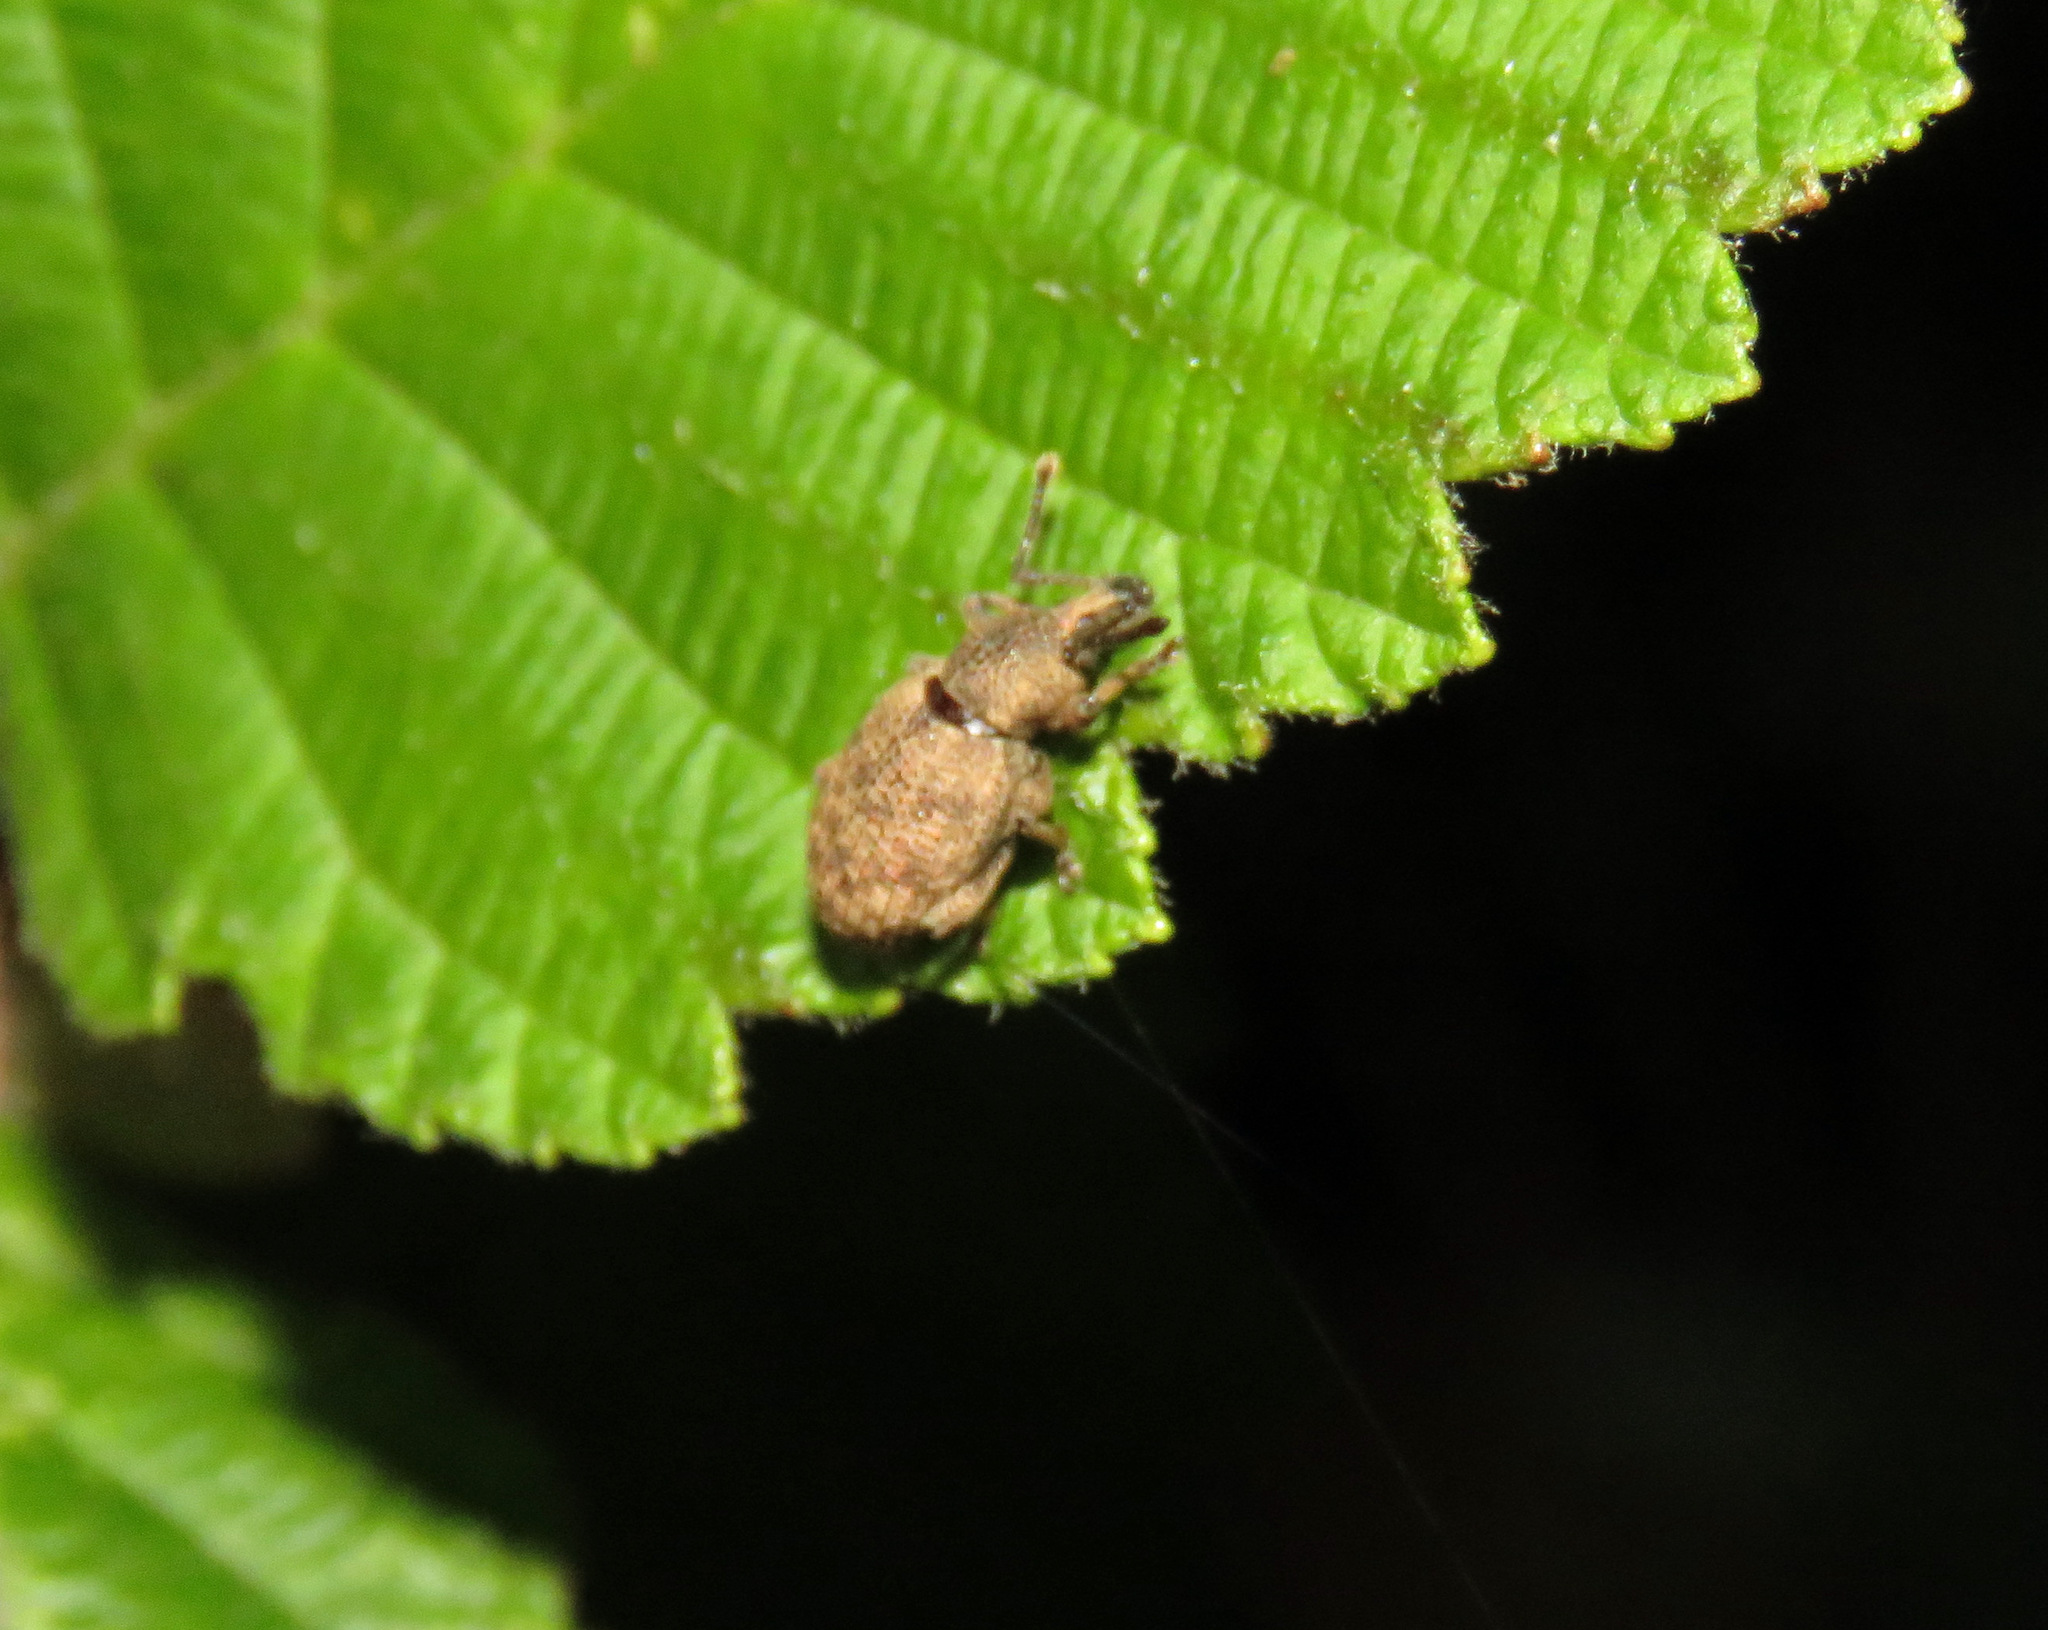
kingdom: Animalia
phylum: Arthropoda
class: Insecta
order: Coleoptera
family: Curculionidae
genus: Otiorhynchus
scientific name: Otiorhynchus singularis
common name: Clay-coloured weevil
